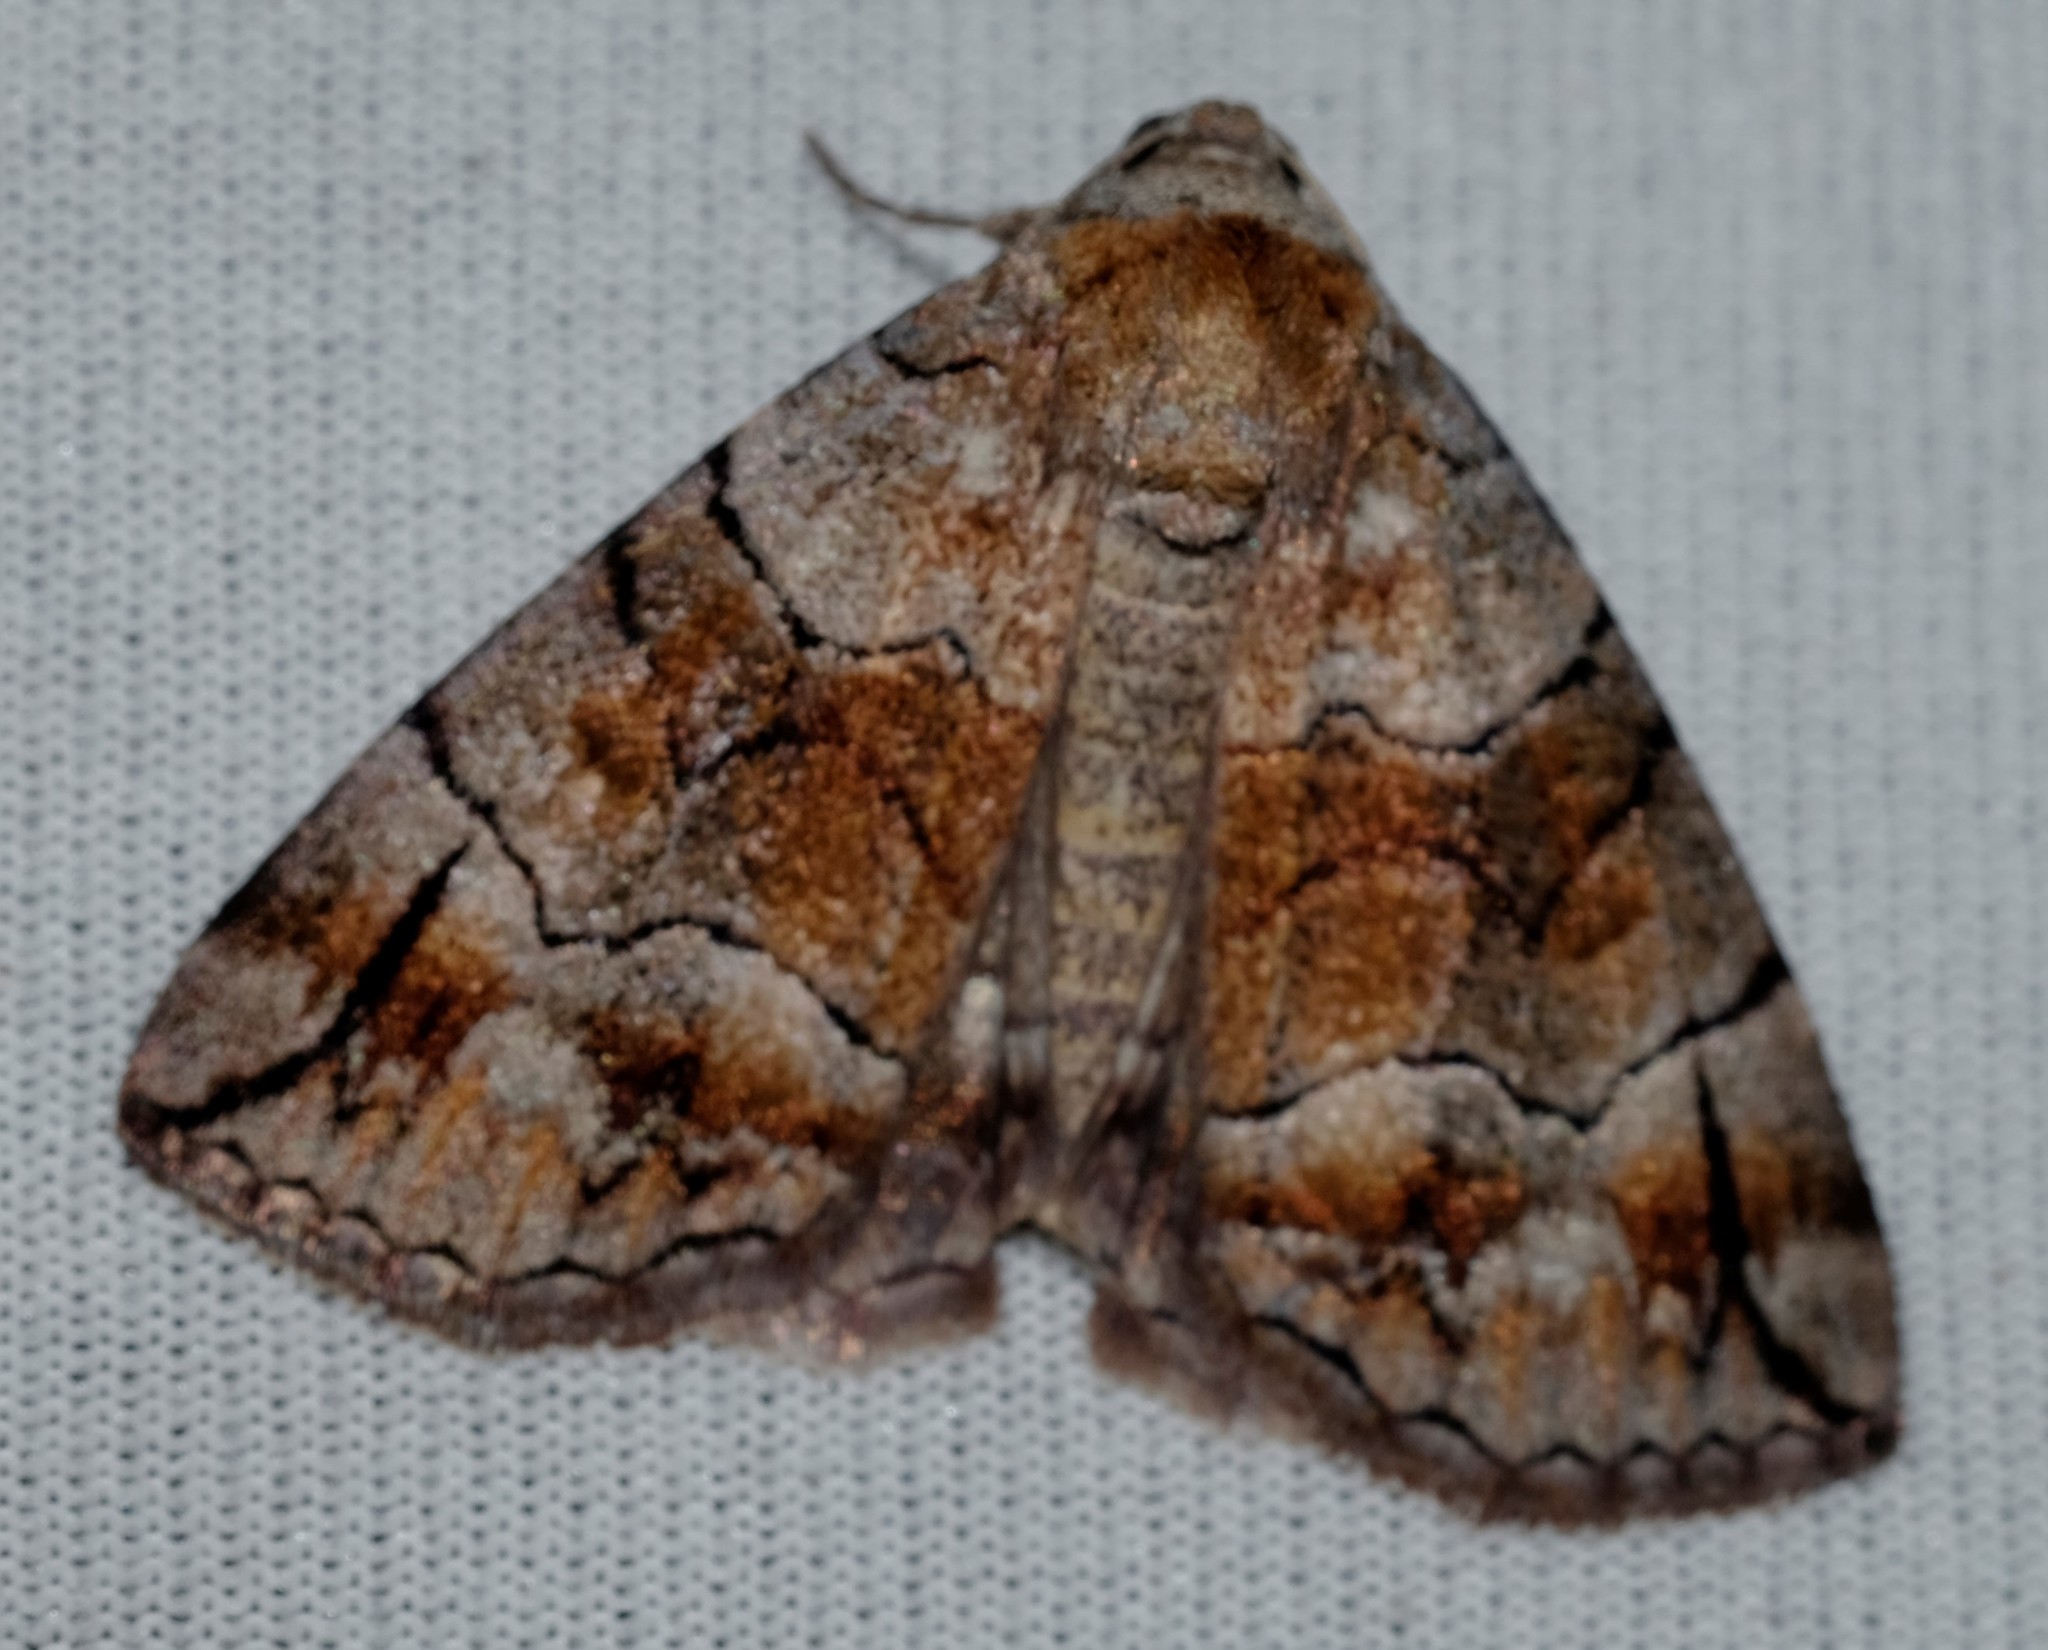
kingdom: Animalia
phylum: Arthropoda
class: Insecta
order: Lepidoptera
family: Geometridae
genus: Dysbatus
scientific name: Dysbatus stenodesma
